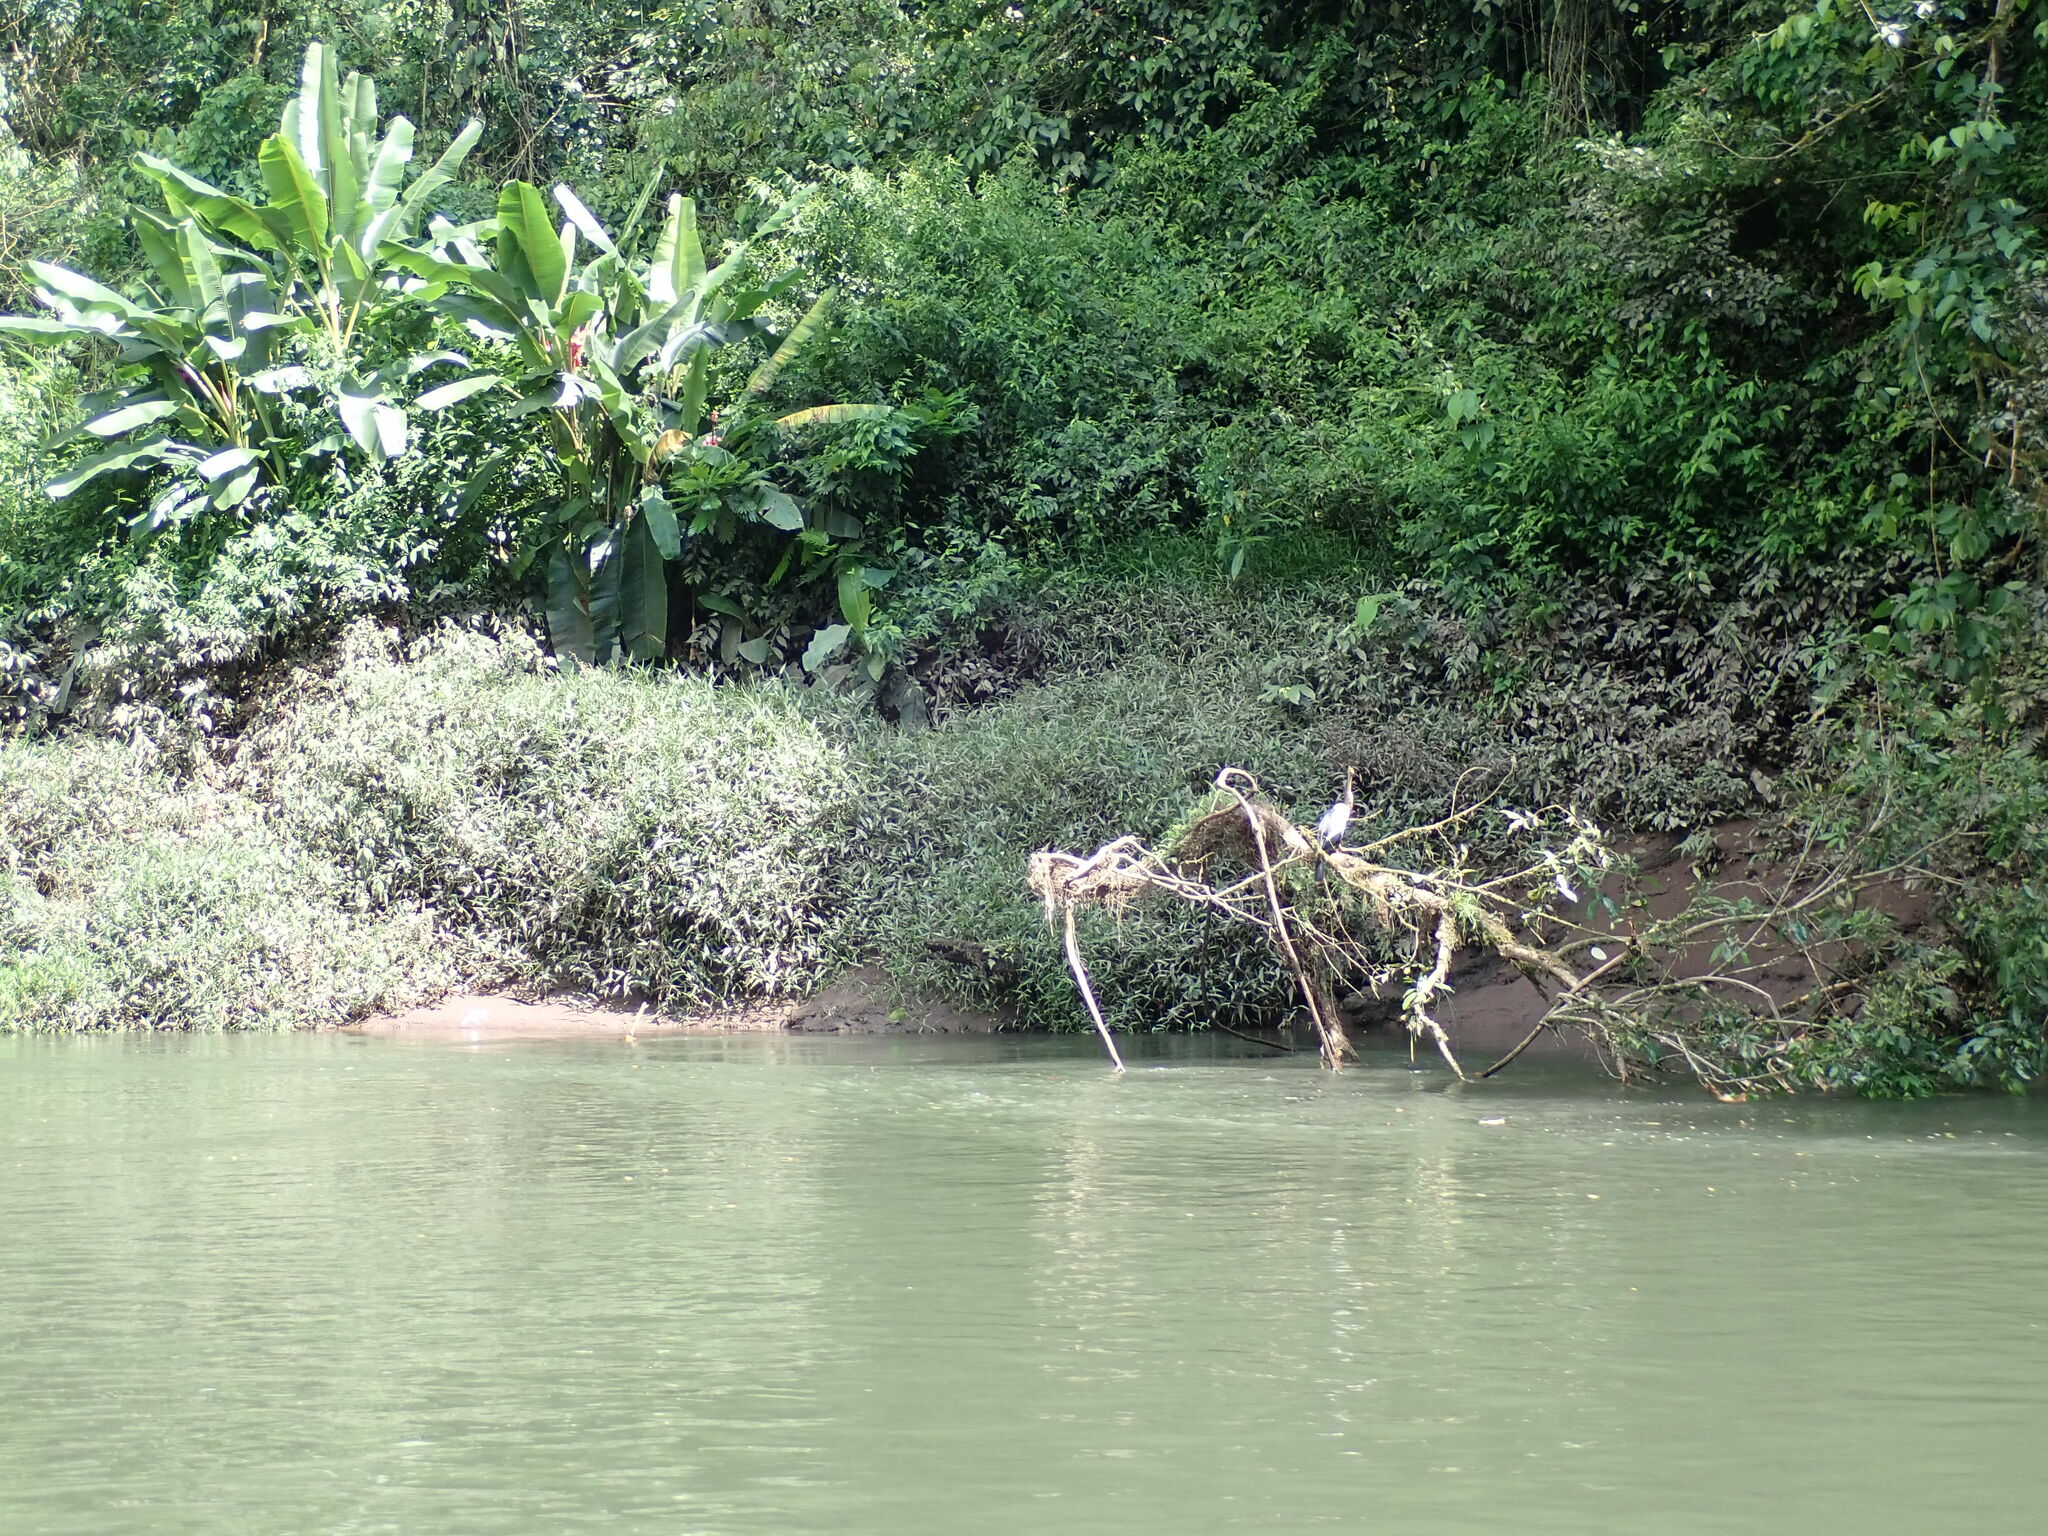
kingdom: Animalia
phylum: Chordata
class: Aves
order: Suliformes
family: Anhingidae
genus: Anhinga
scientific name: Anhinga anhinga
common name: Anhinga
